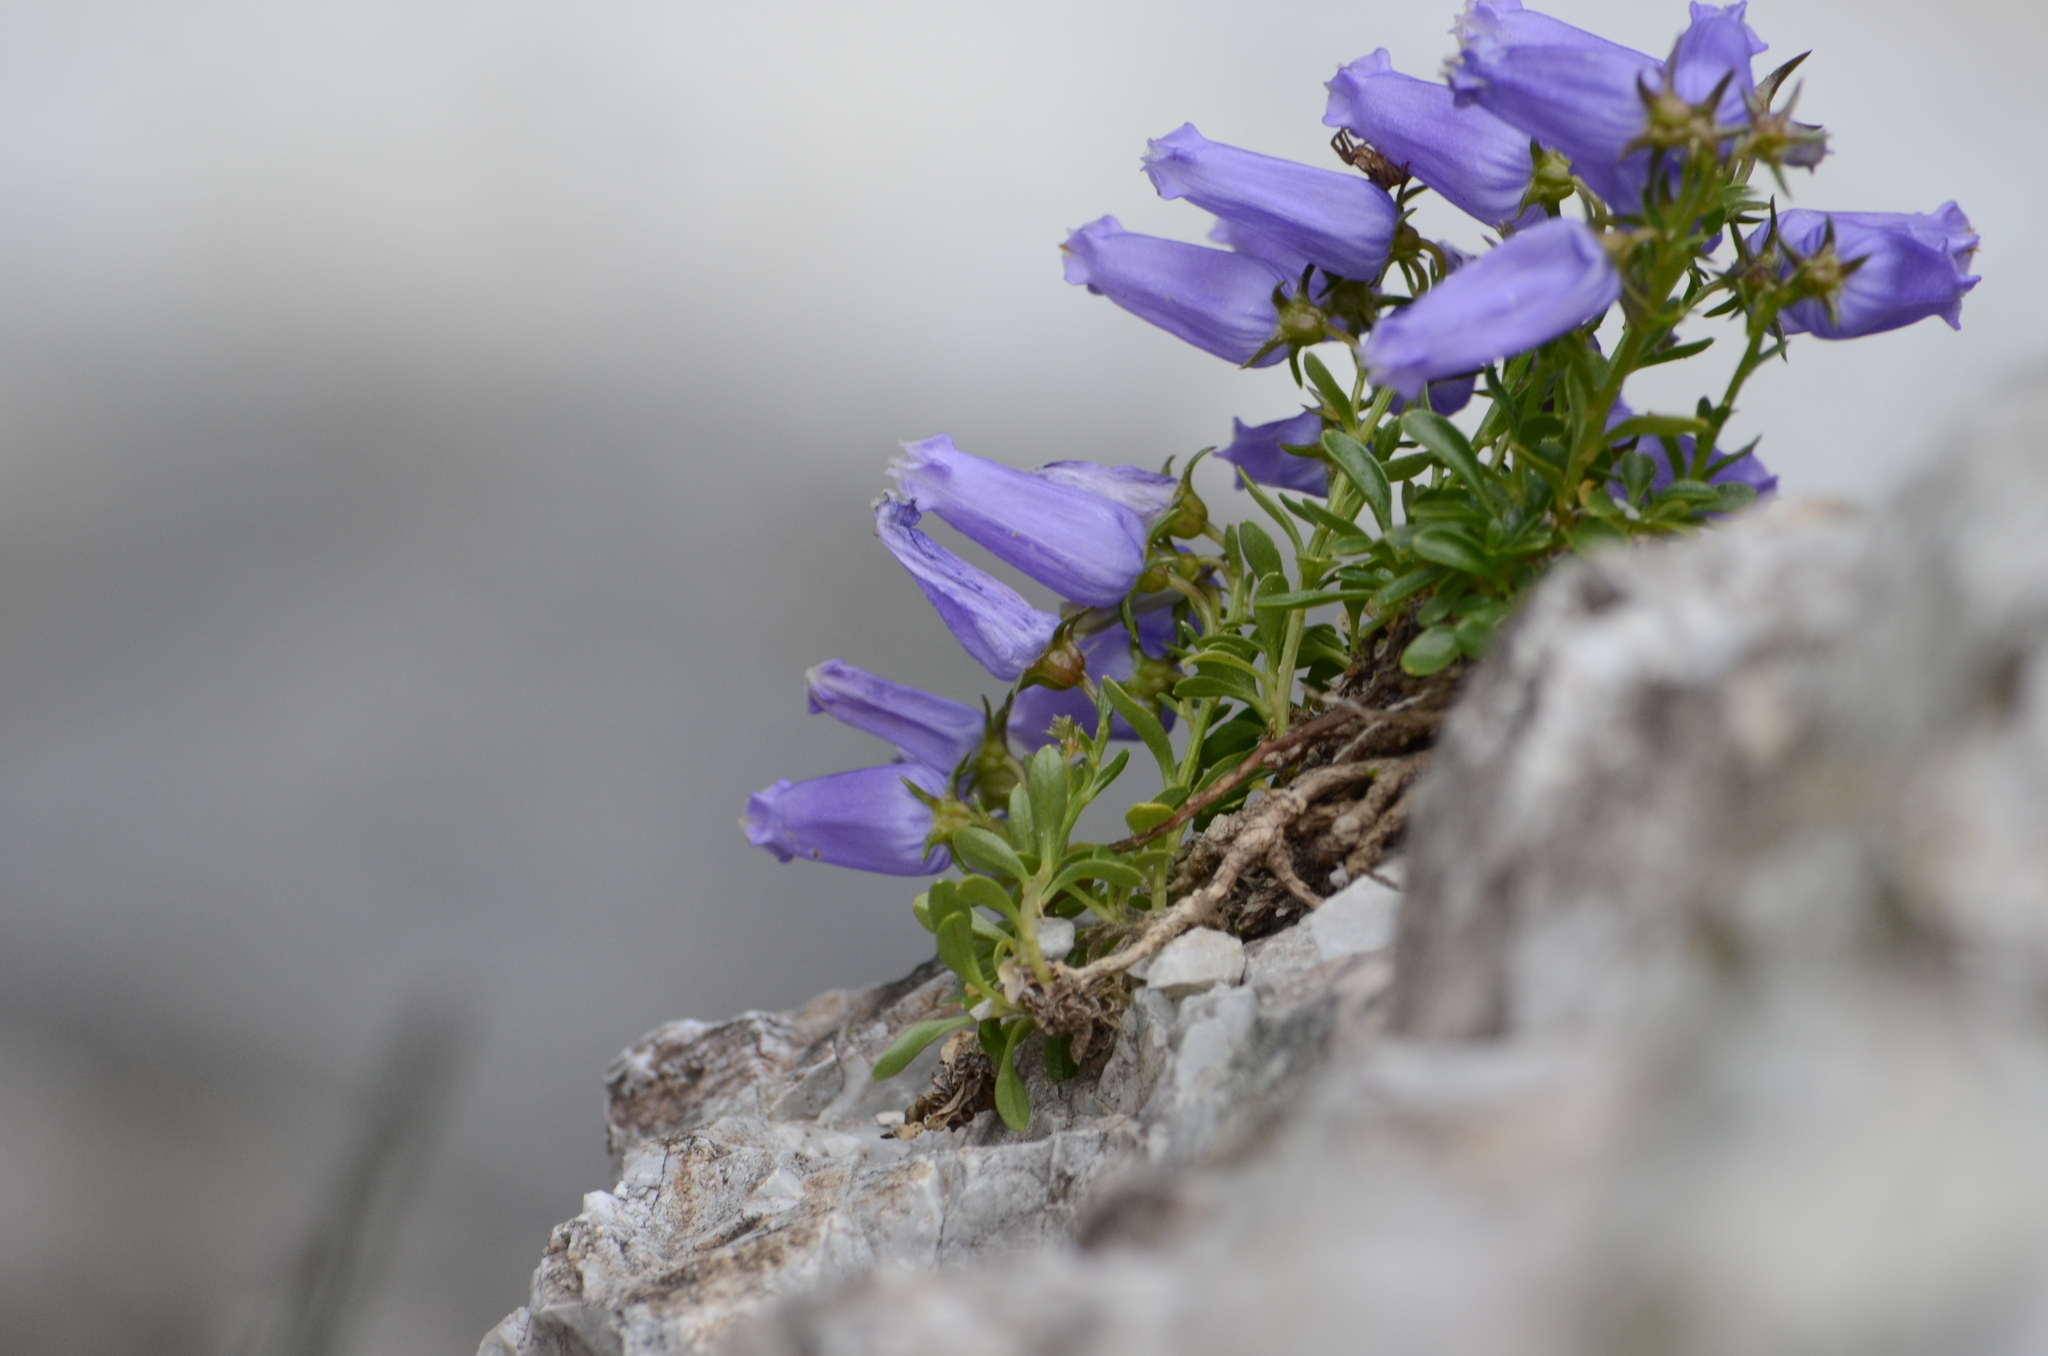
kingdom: Plantae
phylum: Tracheophyta
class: Magnoliopsida
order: Asterales
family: Campanulaceae
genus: Favratia
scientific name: Favratia zoysii
